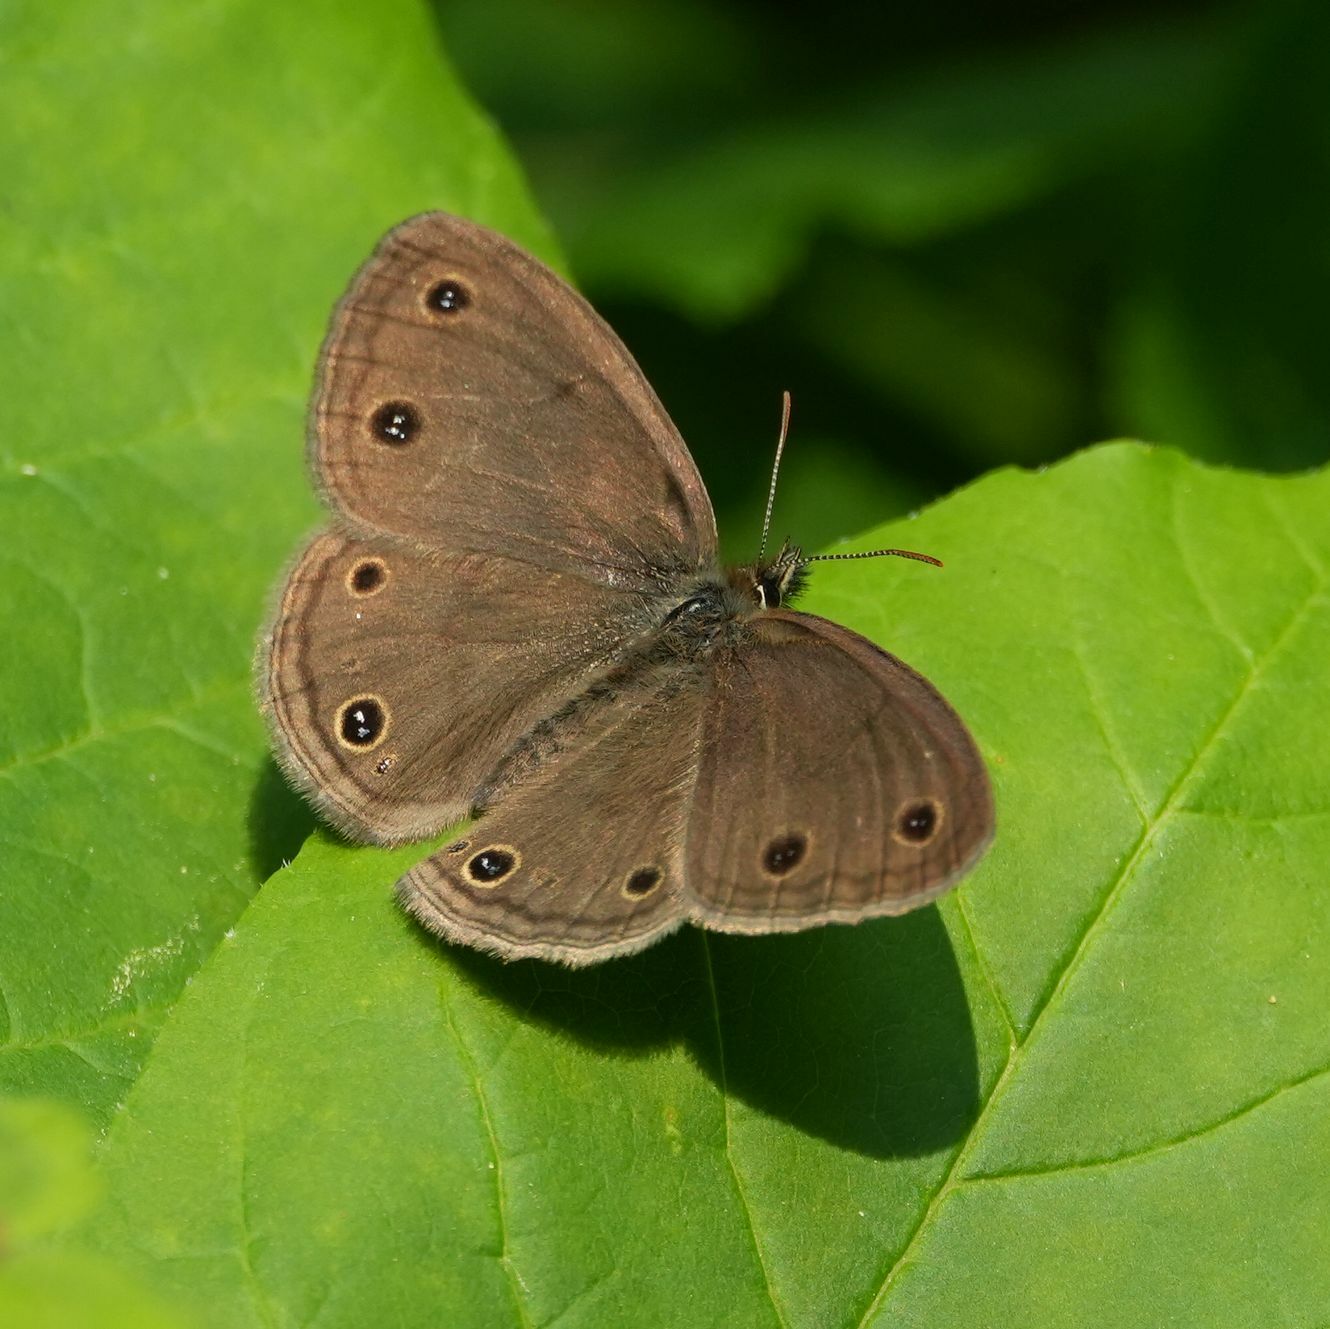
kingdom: Animalia
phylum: Arthropoda
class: Insecta
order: Lepidoptera
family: Nymphalidae
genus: Euptychia
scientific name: Euptychia cymela
